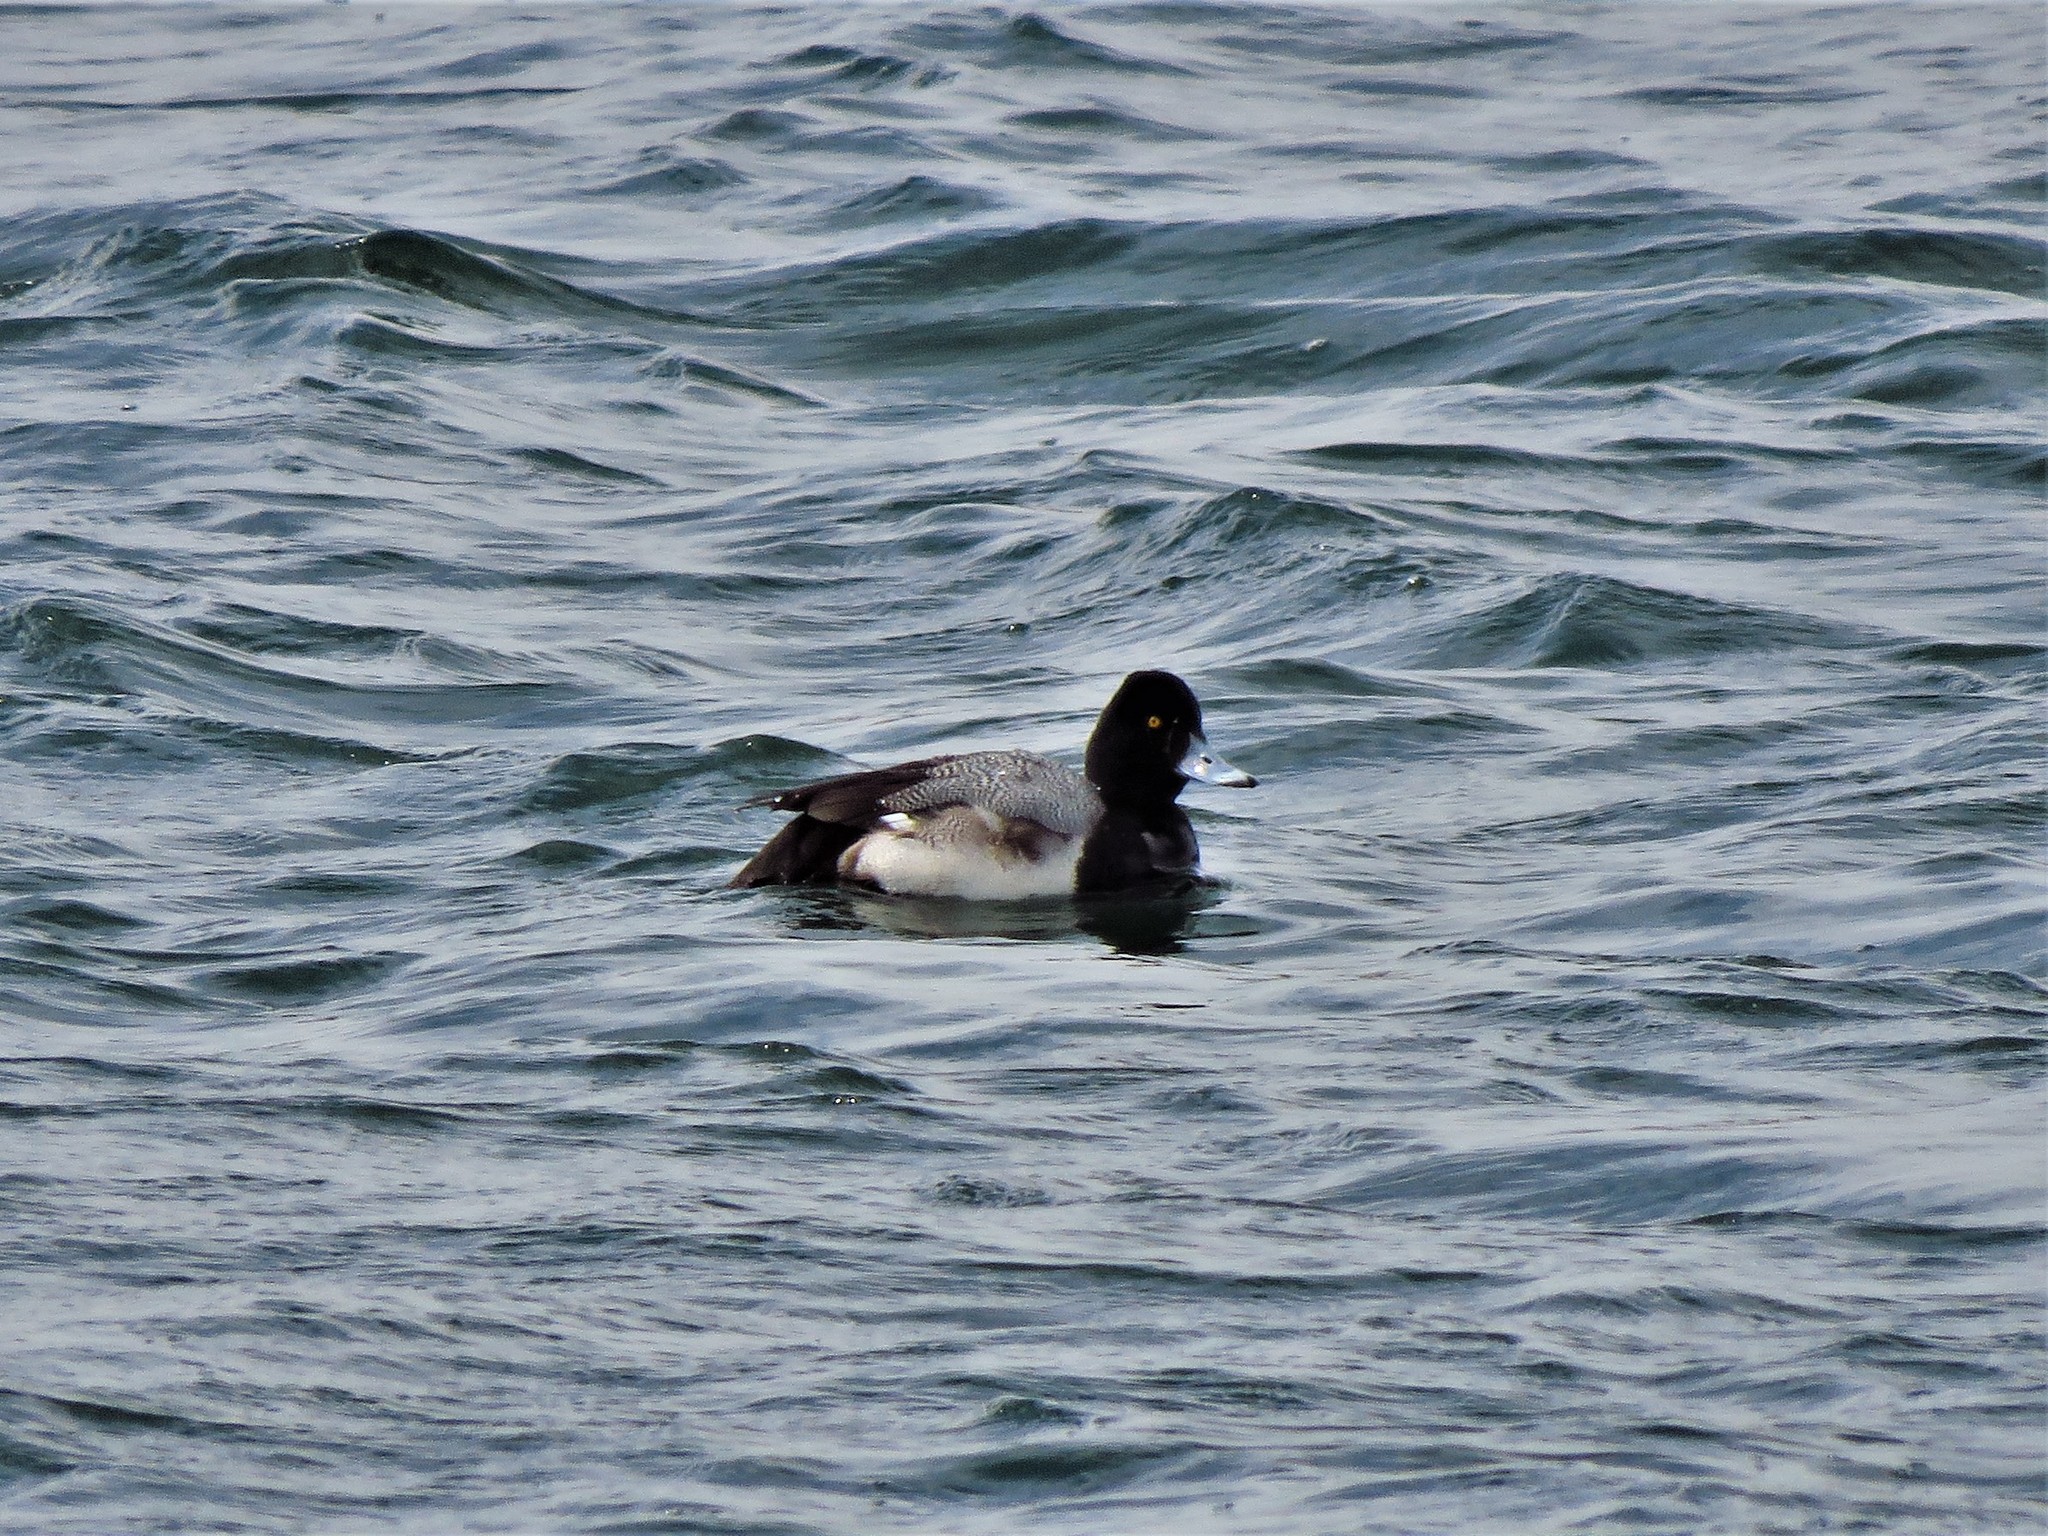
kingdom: Animalia
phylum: Chordata
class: Aves
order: Anseriformes
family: Anatidae
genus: Aythya
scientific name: Aythya affinis
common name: Lesser scaup
